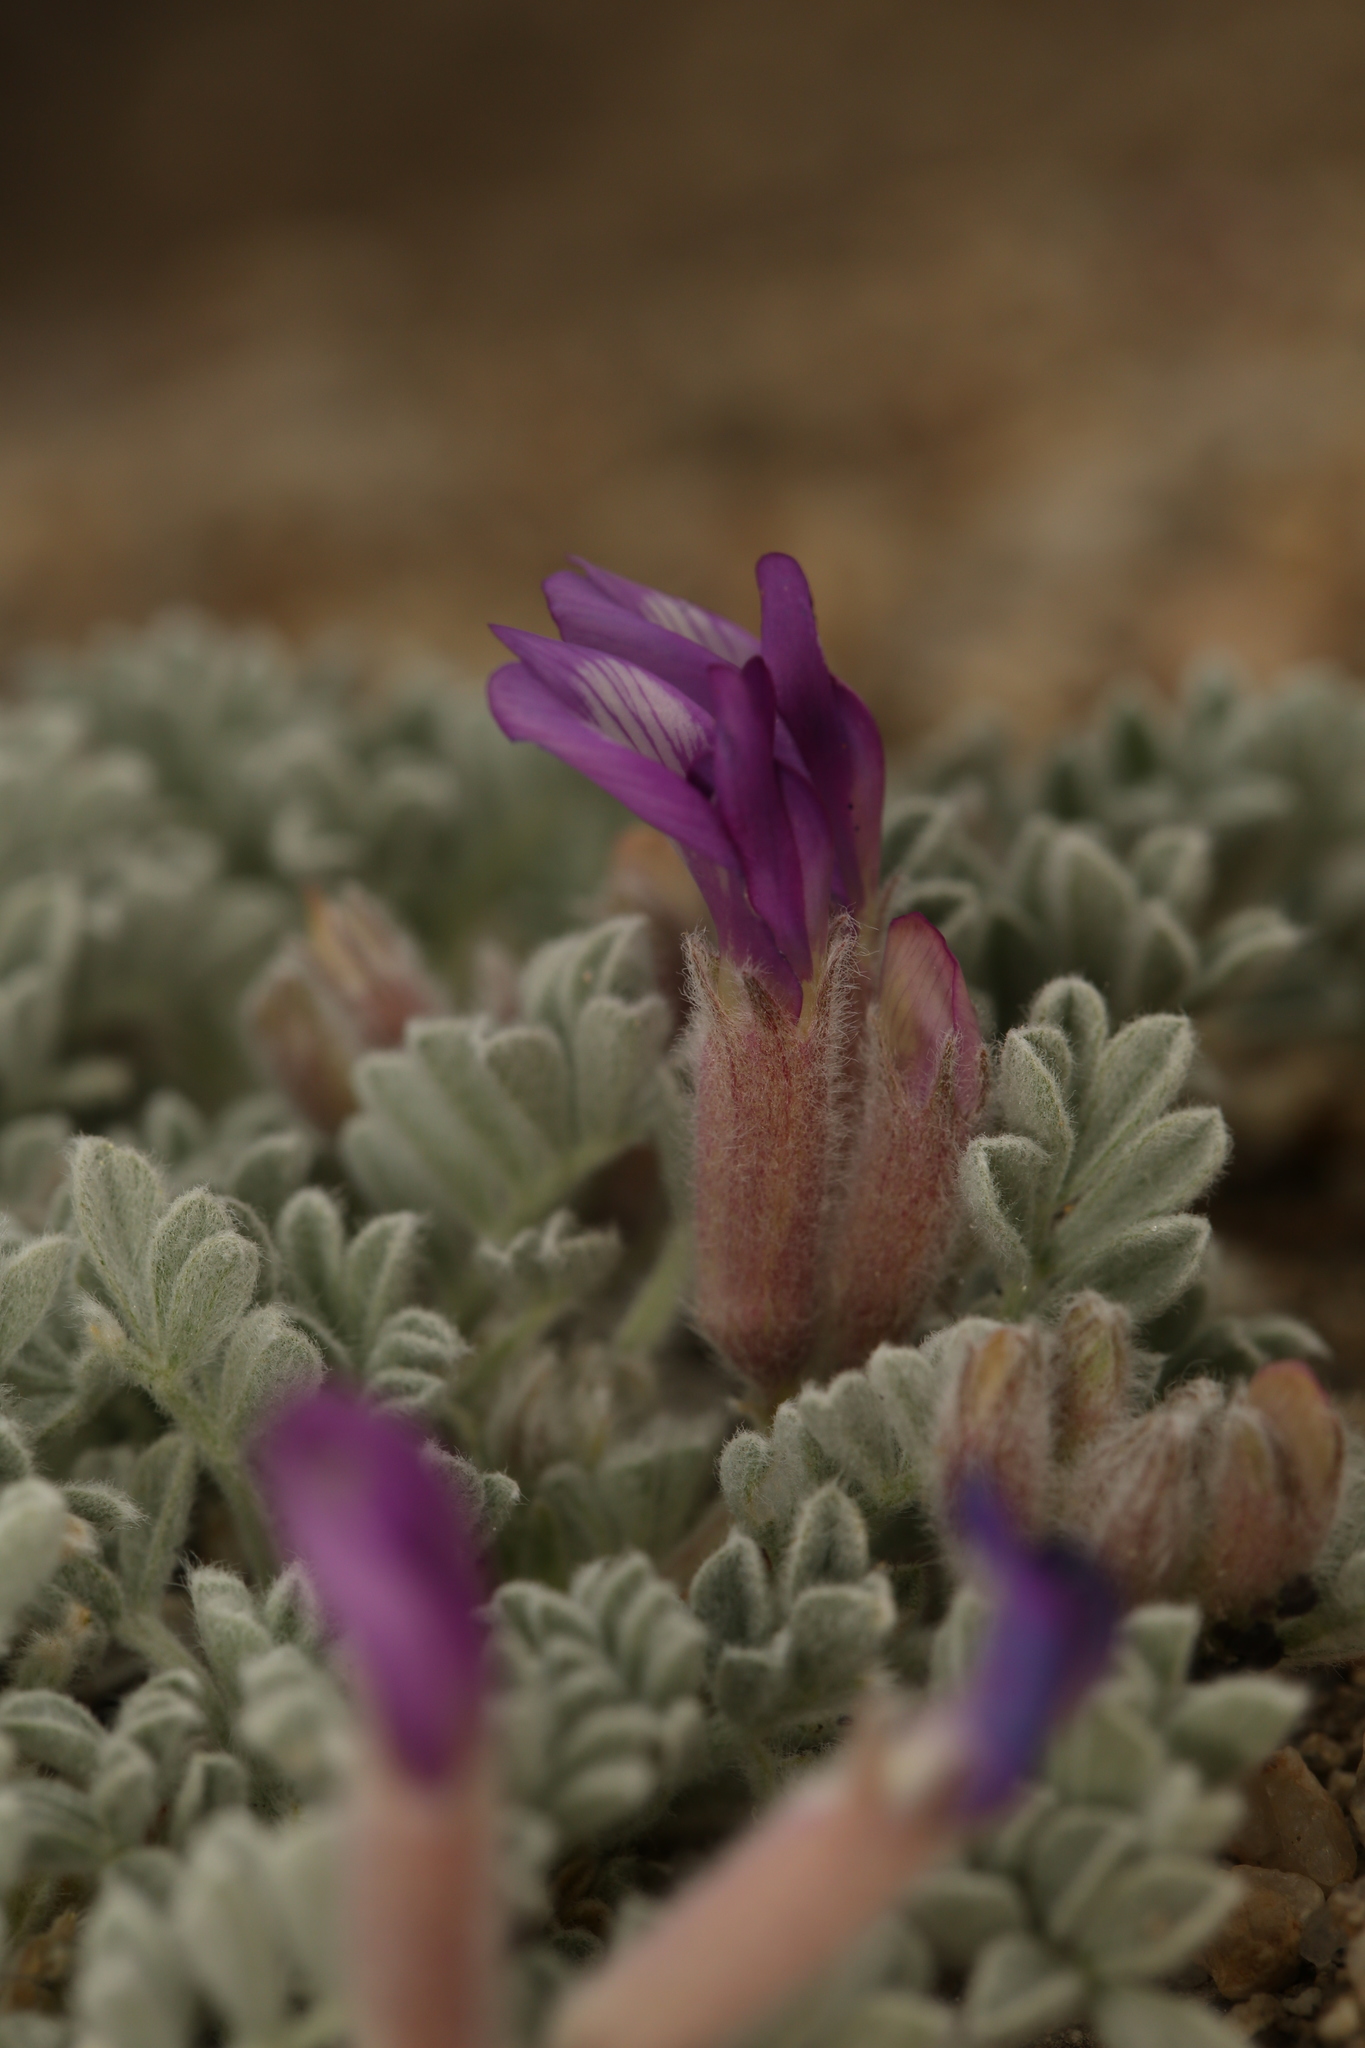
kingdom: Plantae
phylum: Tracheophyta
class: Magnoliopsida
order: Fabales
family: Fabaceae
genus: Astragalus
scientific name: Astragalus purshii
